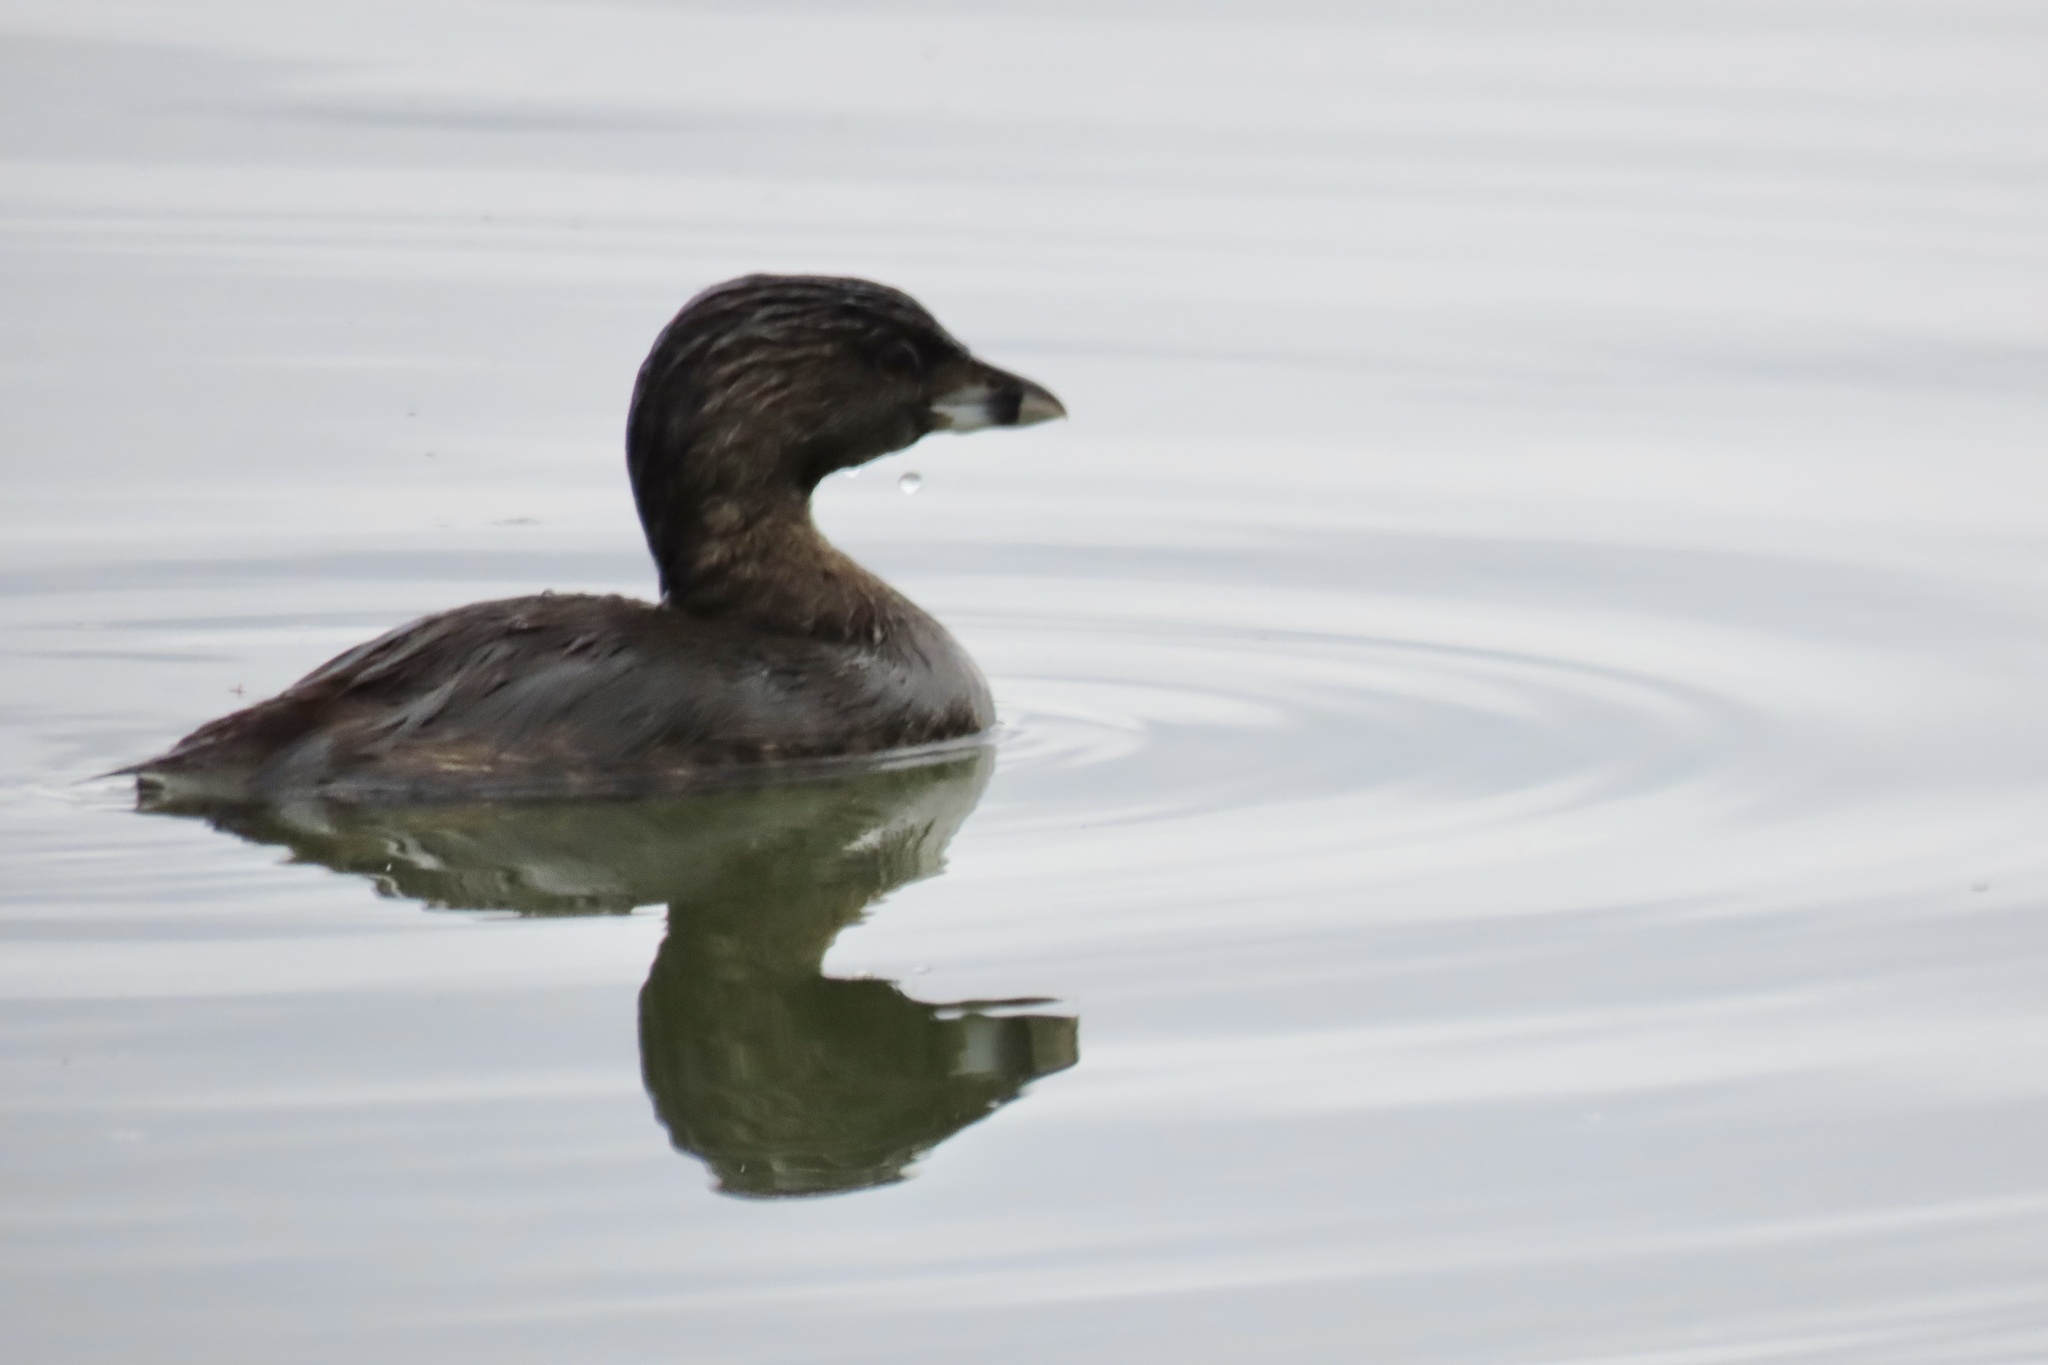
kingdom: Animalia
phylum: Chordata
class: Aves
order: Podicipediformes
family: Podicipedidae
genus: Podilymbus
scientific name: Podilymbus podiceps
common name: Pied-billed grebe
